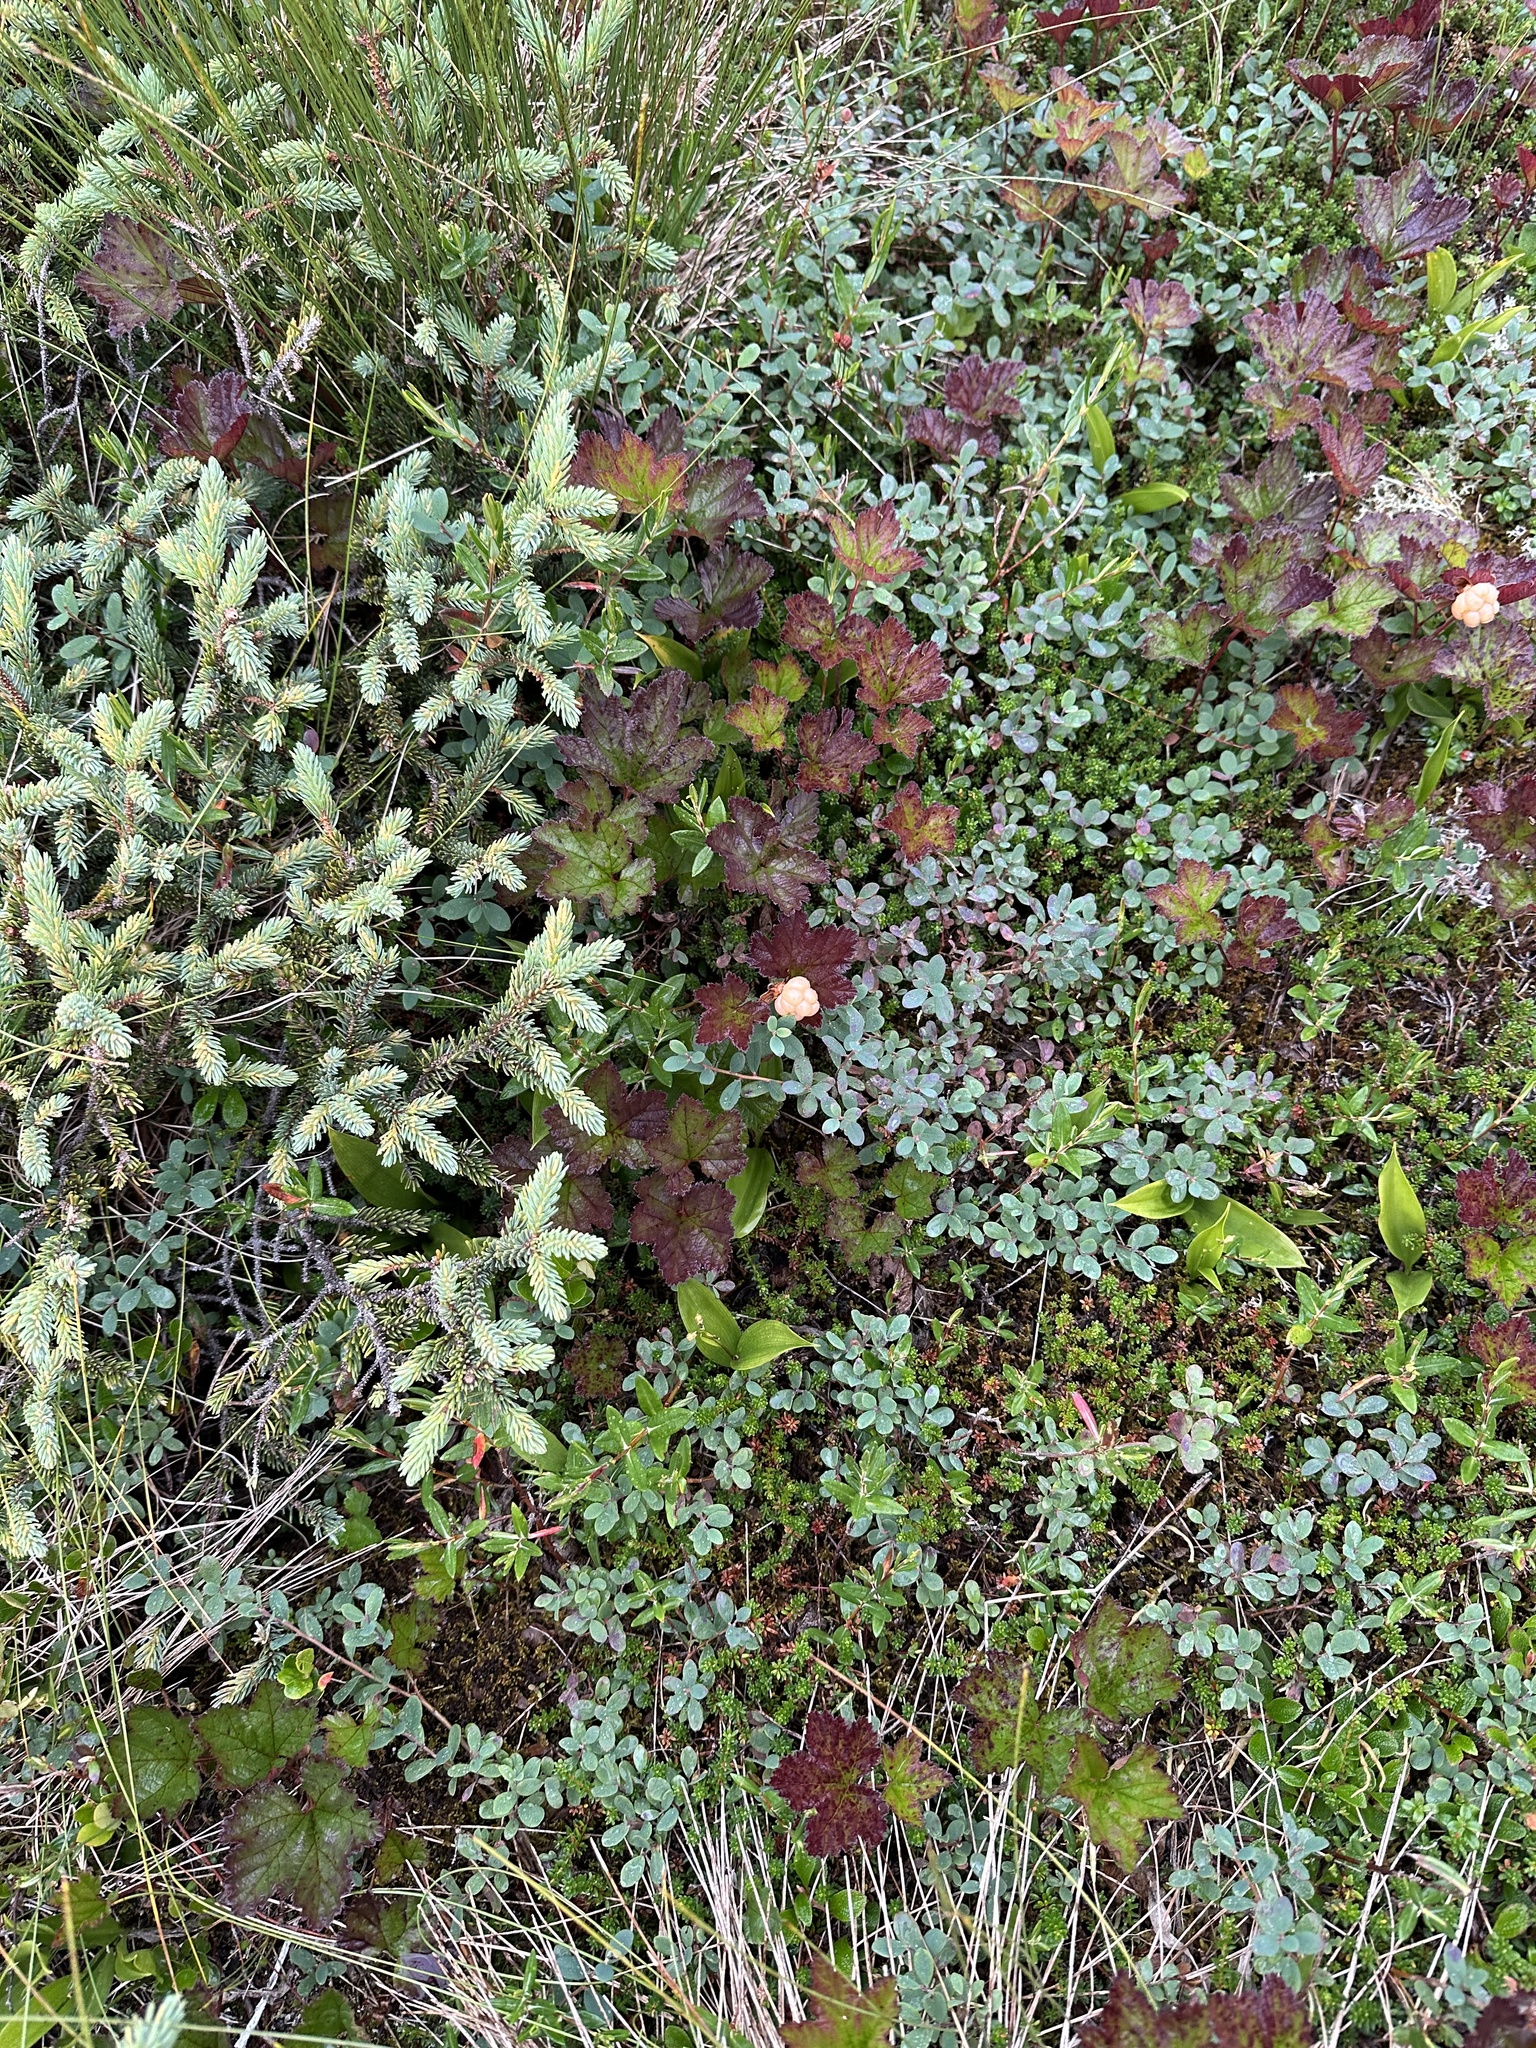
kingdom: Plantae
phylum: Tracheophyta
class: Magnoliopsida
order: Rosales
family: Rosaceae
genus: Rubus
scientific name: Rubus chamaemorus
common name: Cloudberry
